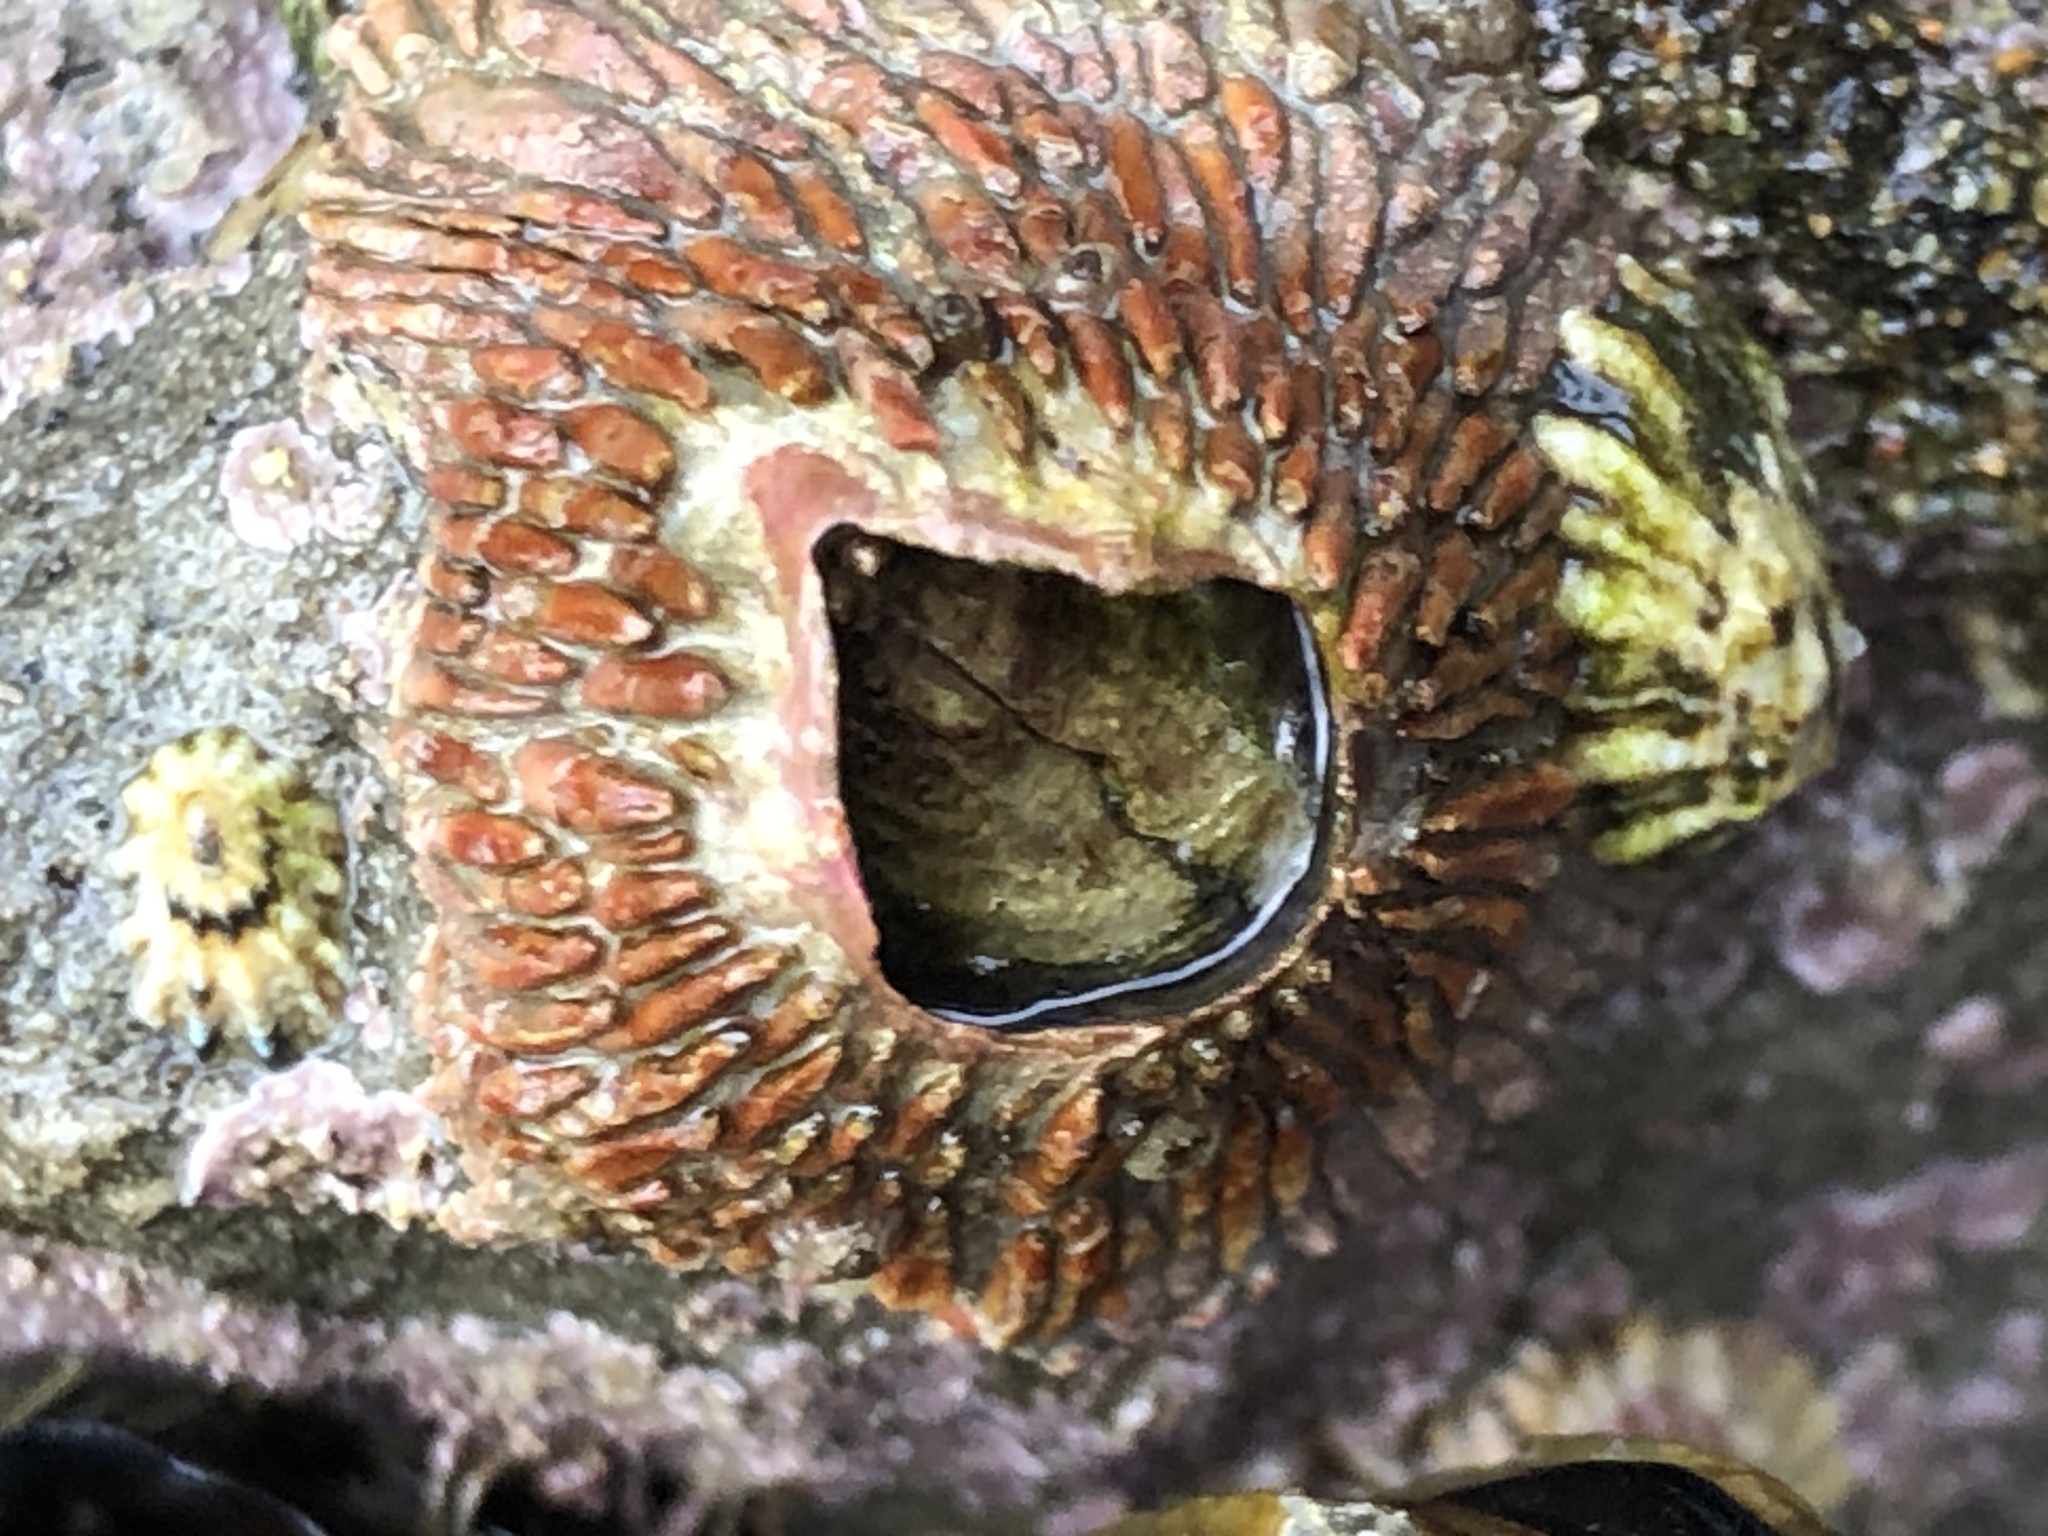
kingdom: Animalia
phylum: Arthropoda
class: Maxillopoda
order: Sessilia
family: Tetraclitidae
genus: Tetraclita
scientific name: Tetraclita rubescens
